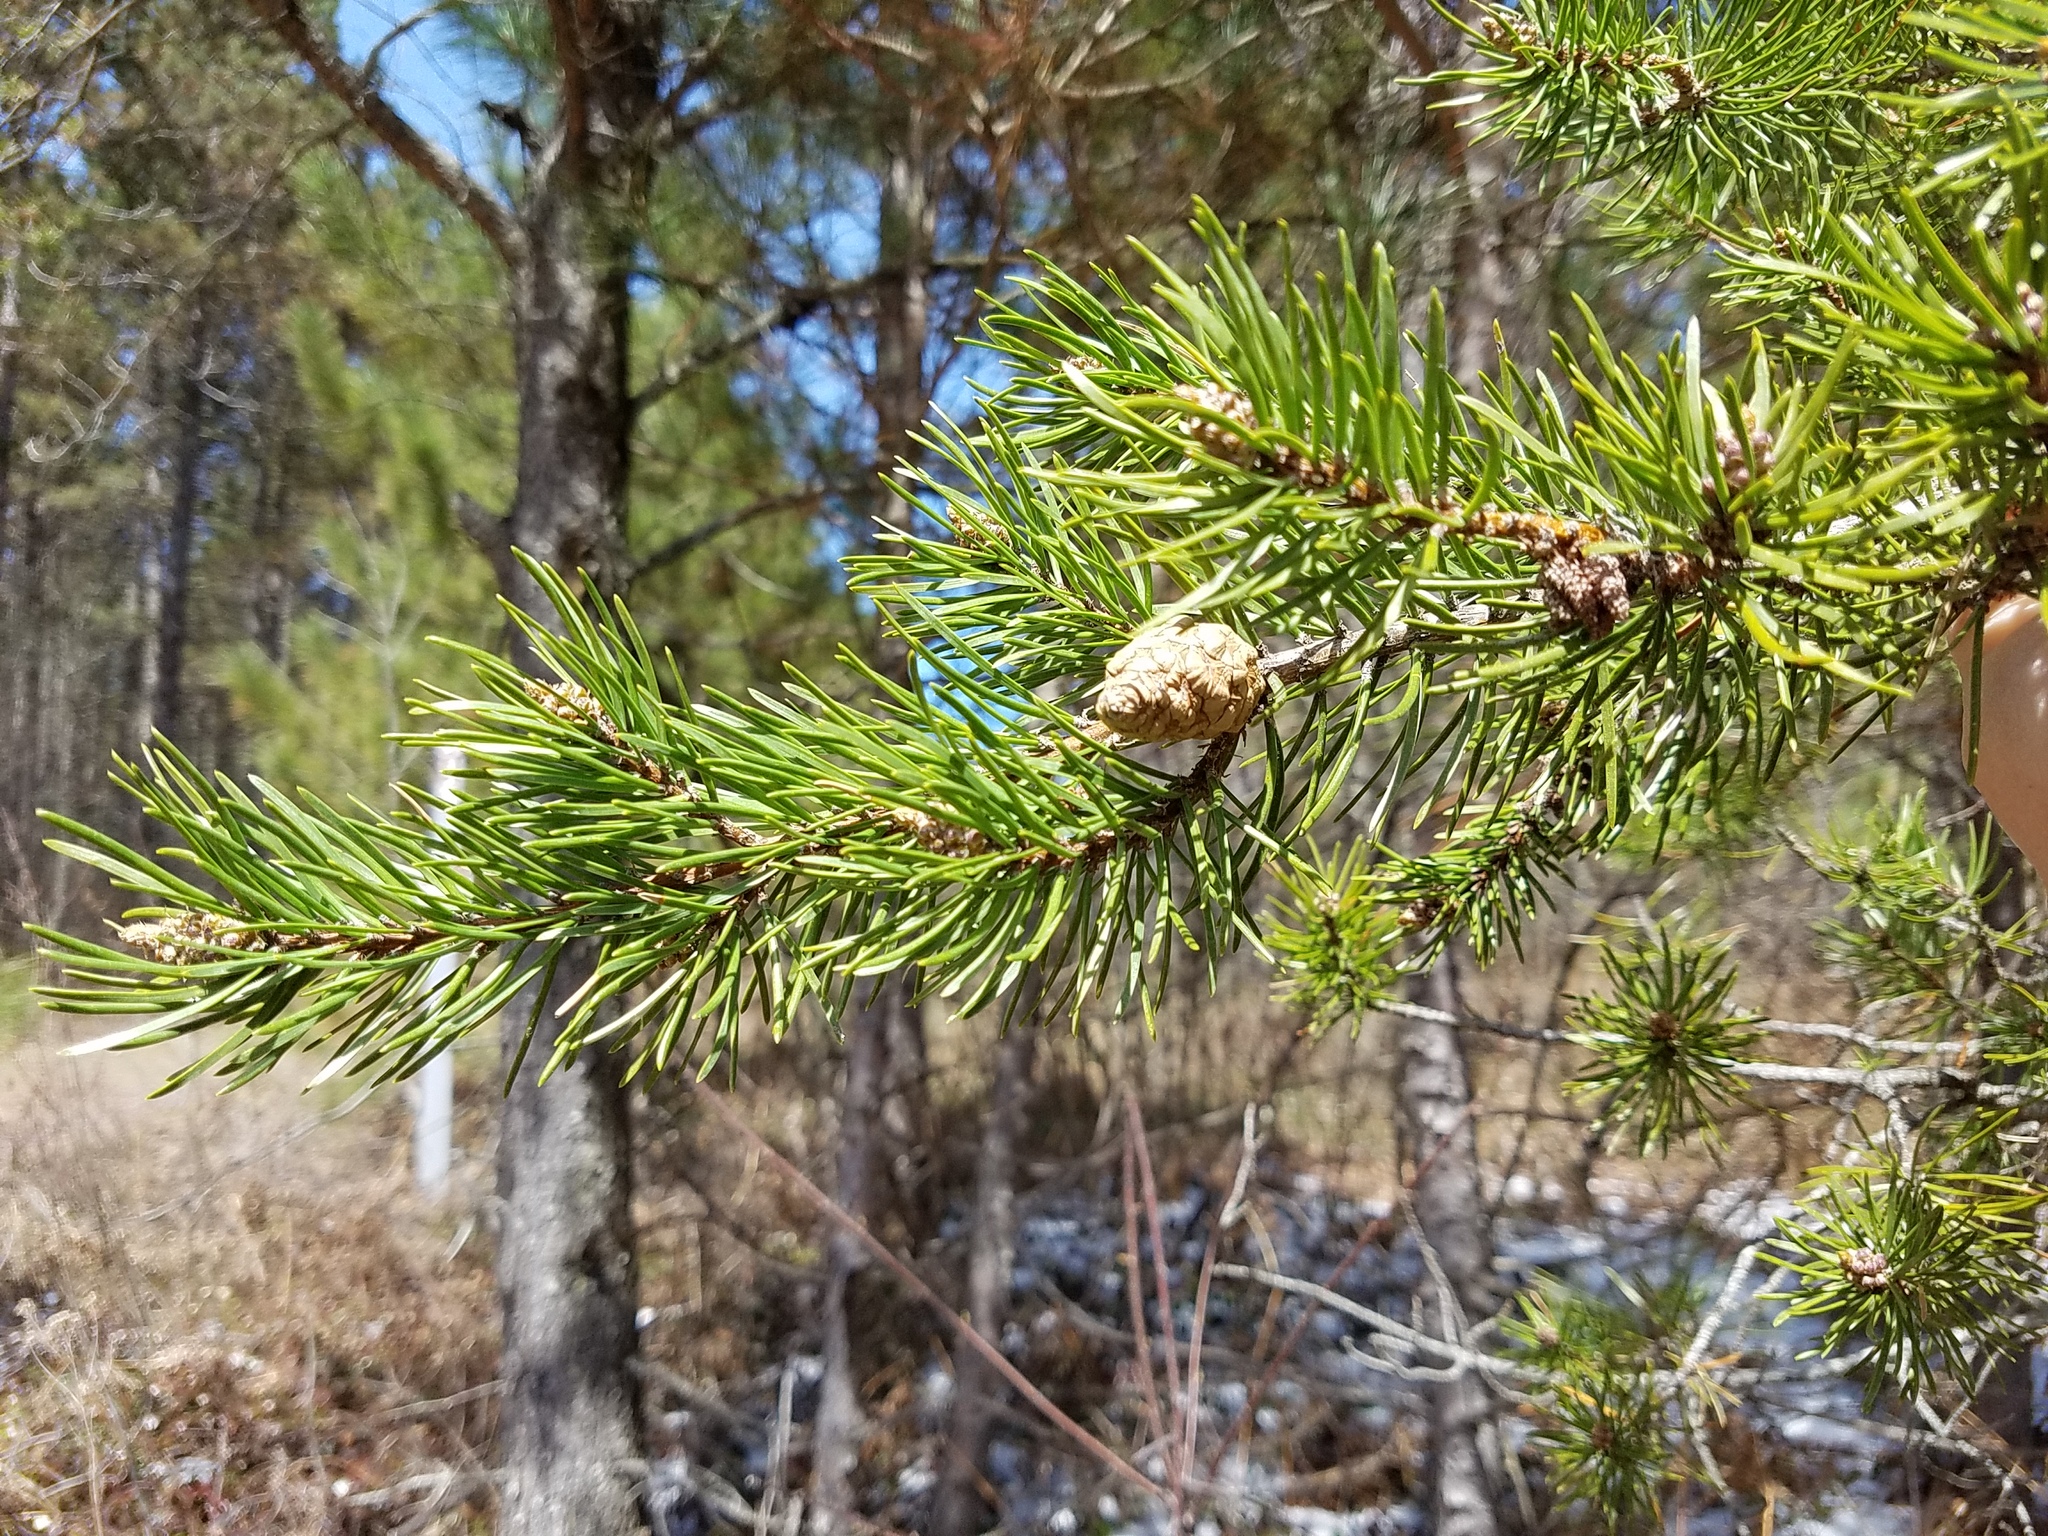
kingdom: Plantae
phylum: Tracheophyta
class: Pinopsida
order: Pinales
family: Pinaceae
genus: Pinus
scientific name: Pinus banksiana
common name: Jack pine
